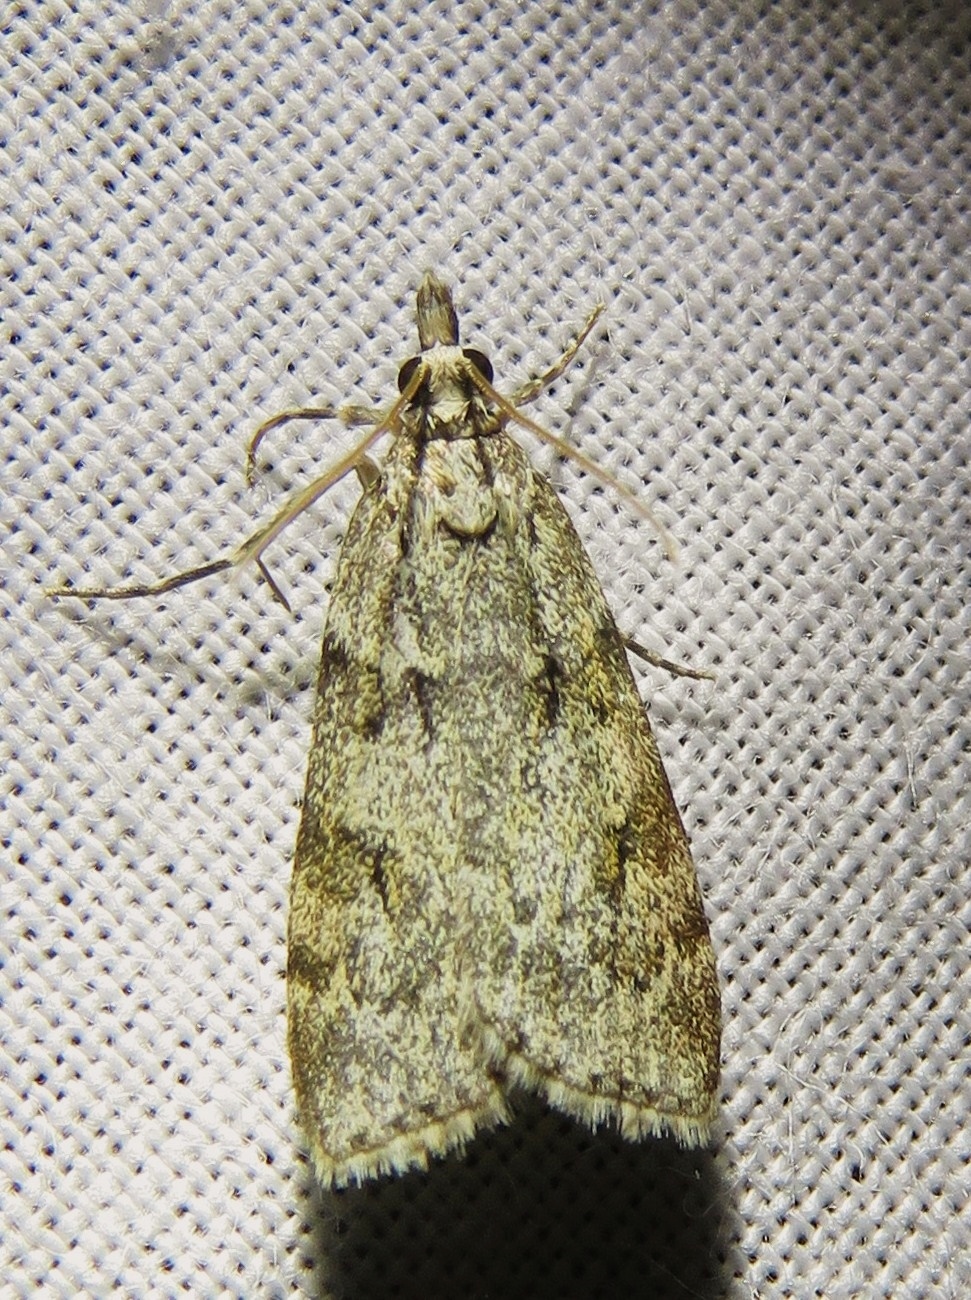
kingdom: Animalia
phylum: Arthropoda
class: Insecta
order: Lepidoptera
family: Crambidae
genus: Scoparia
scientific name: Scoparia cembrella
